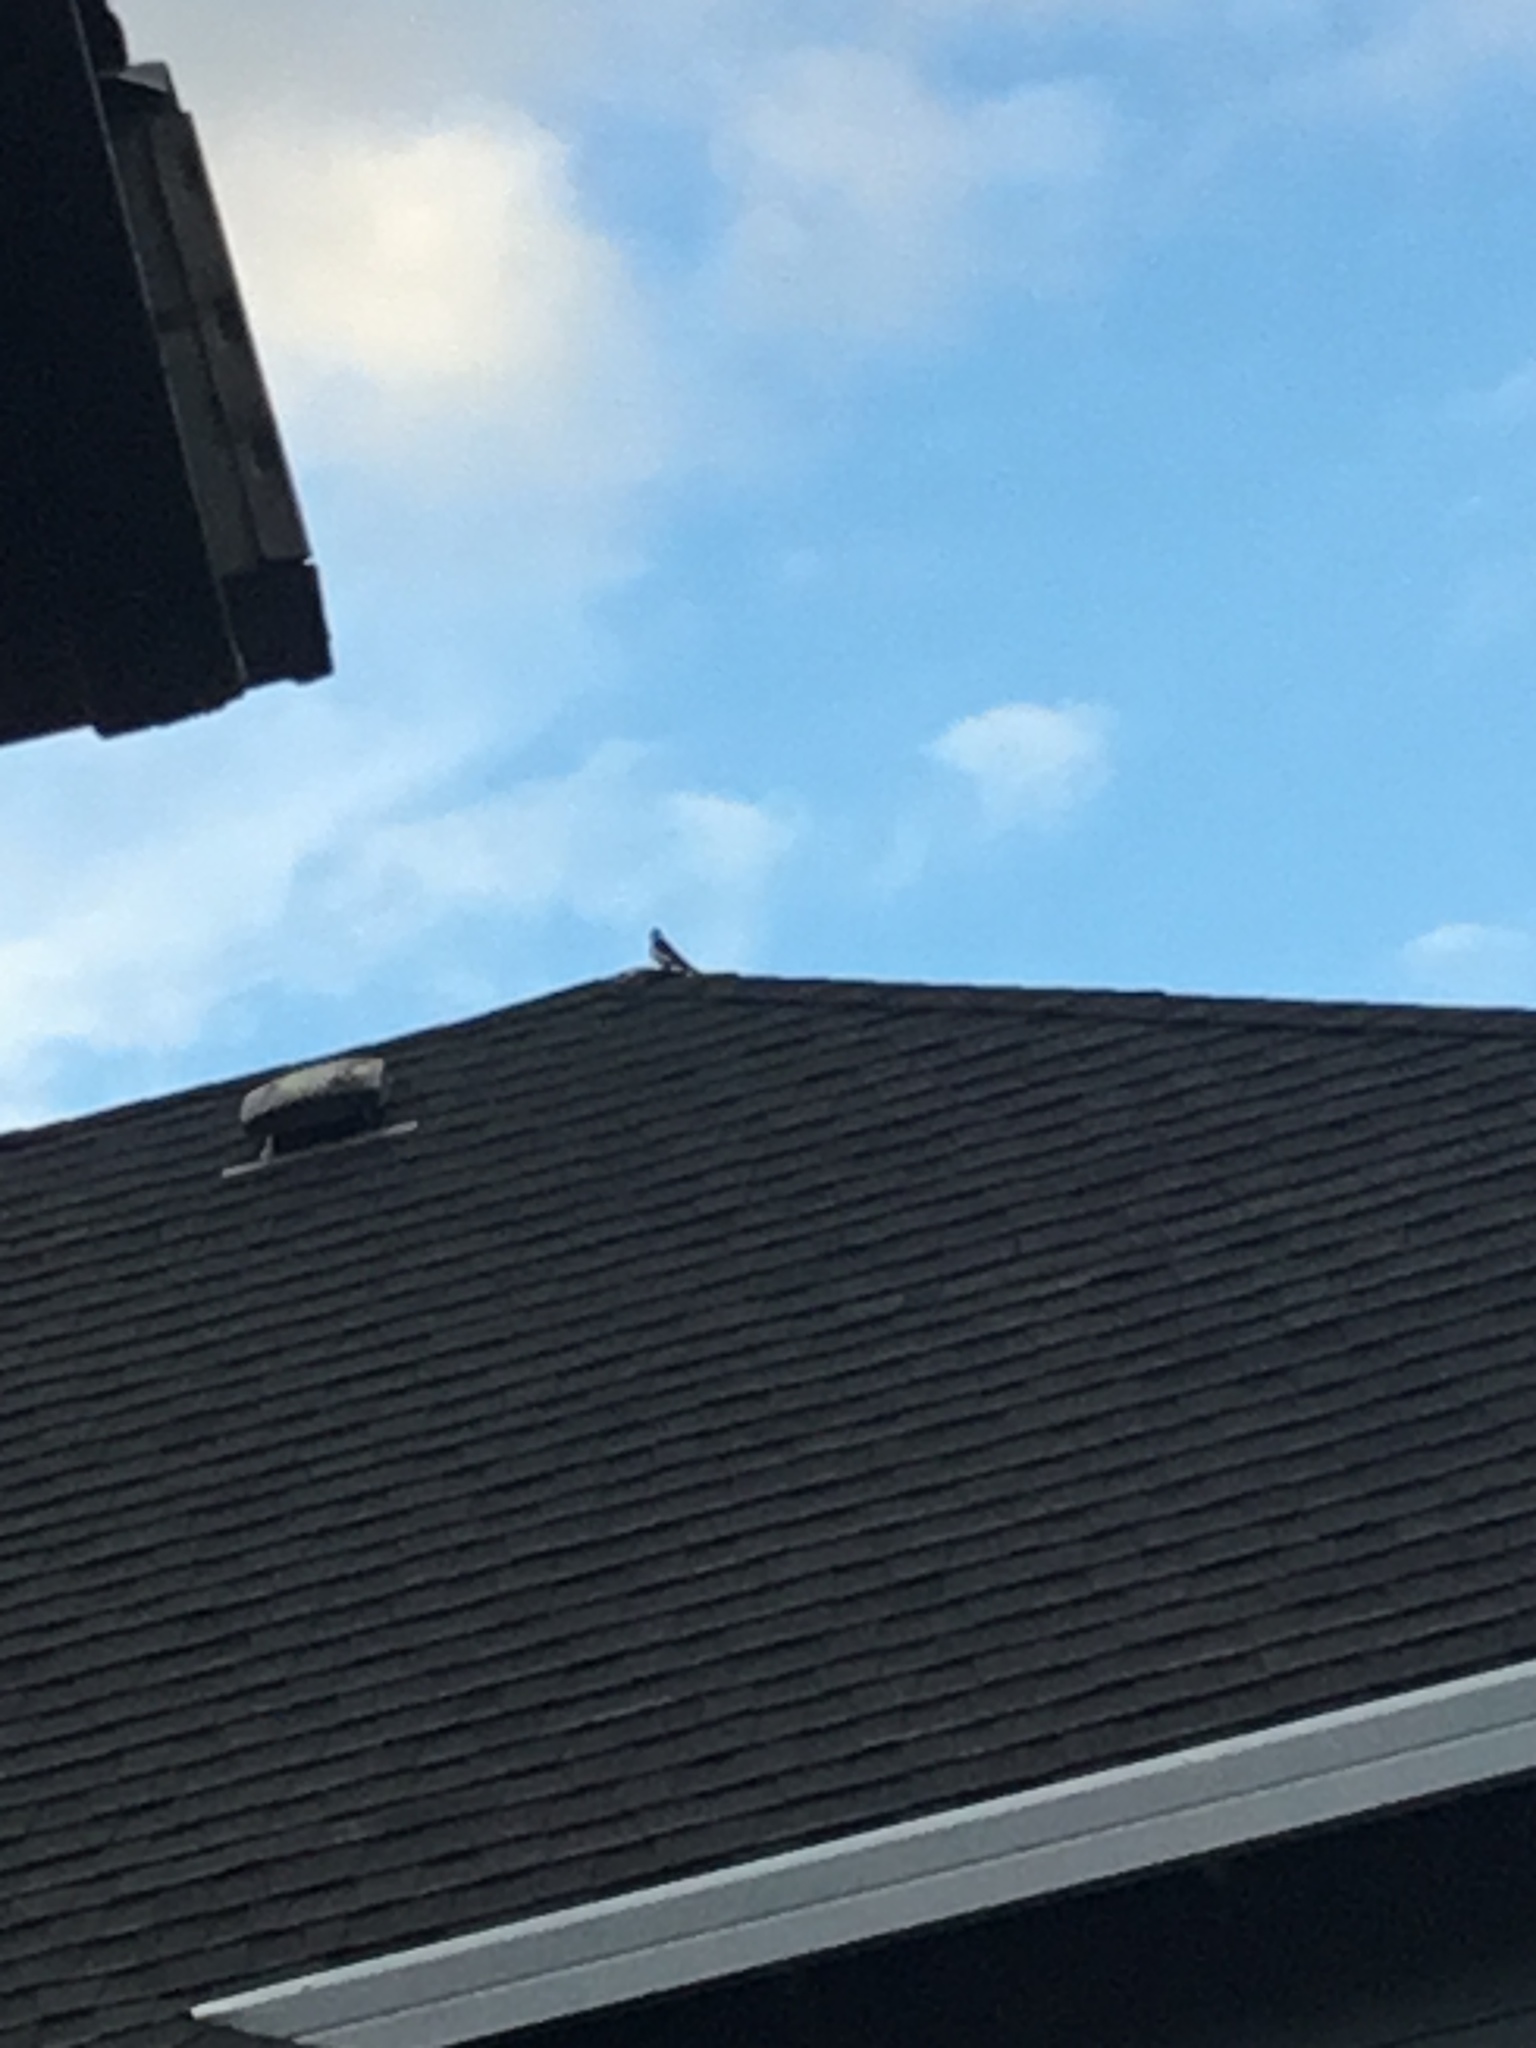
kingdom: Animalia
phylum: Chordata
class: Aves
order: Passeriformes
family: Hirundinidae
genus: Tachycineta
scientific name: Tachycineta bicolor
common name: Tree swallow
